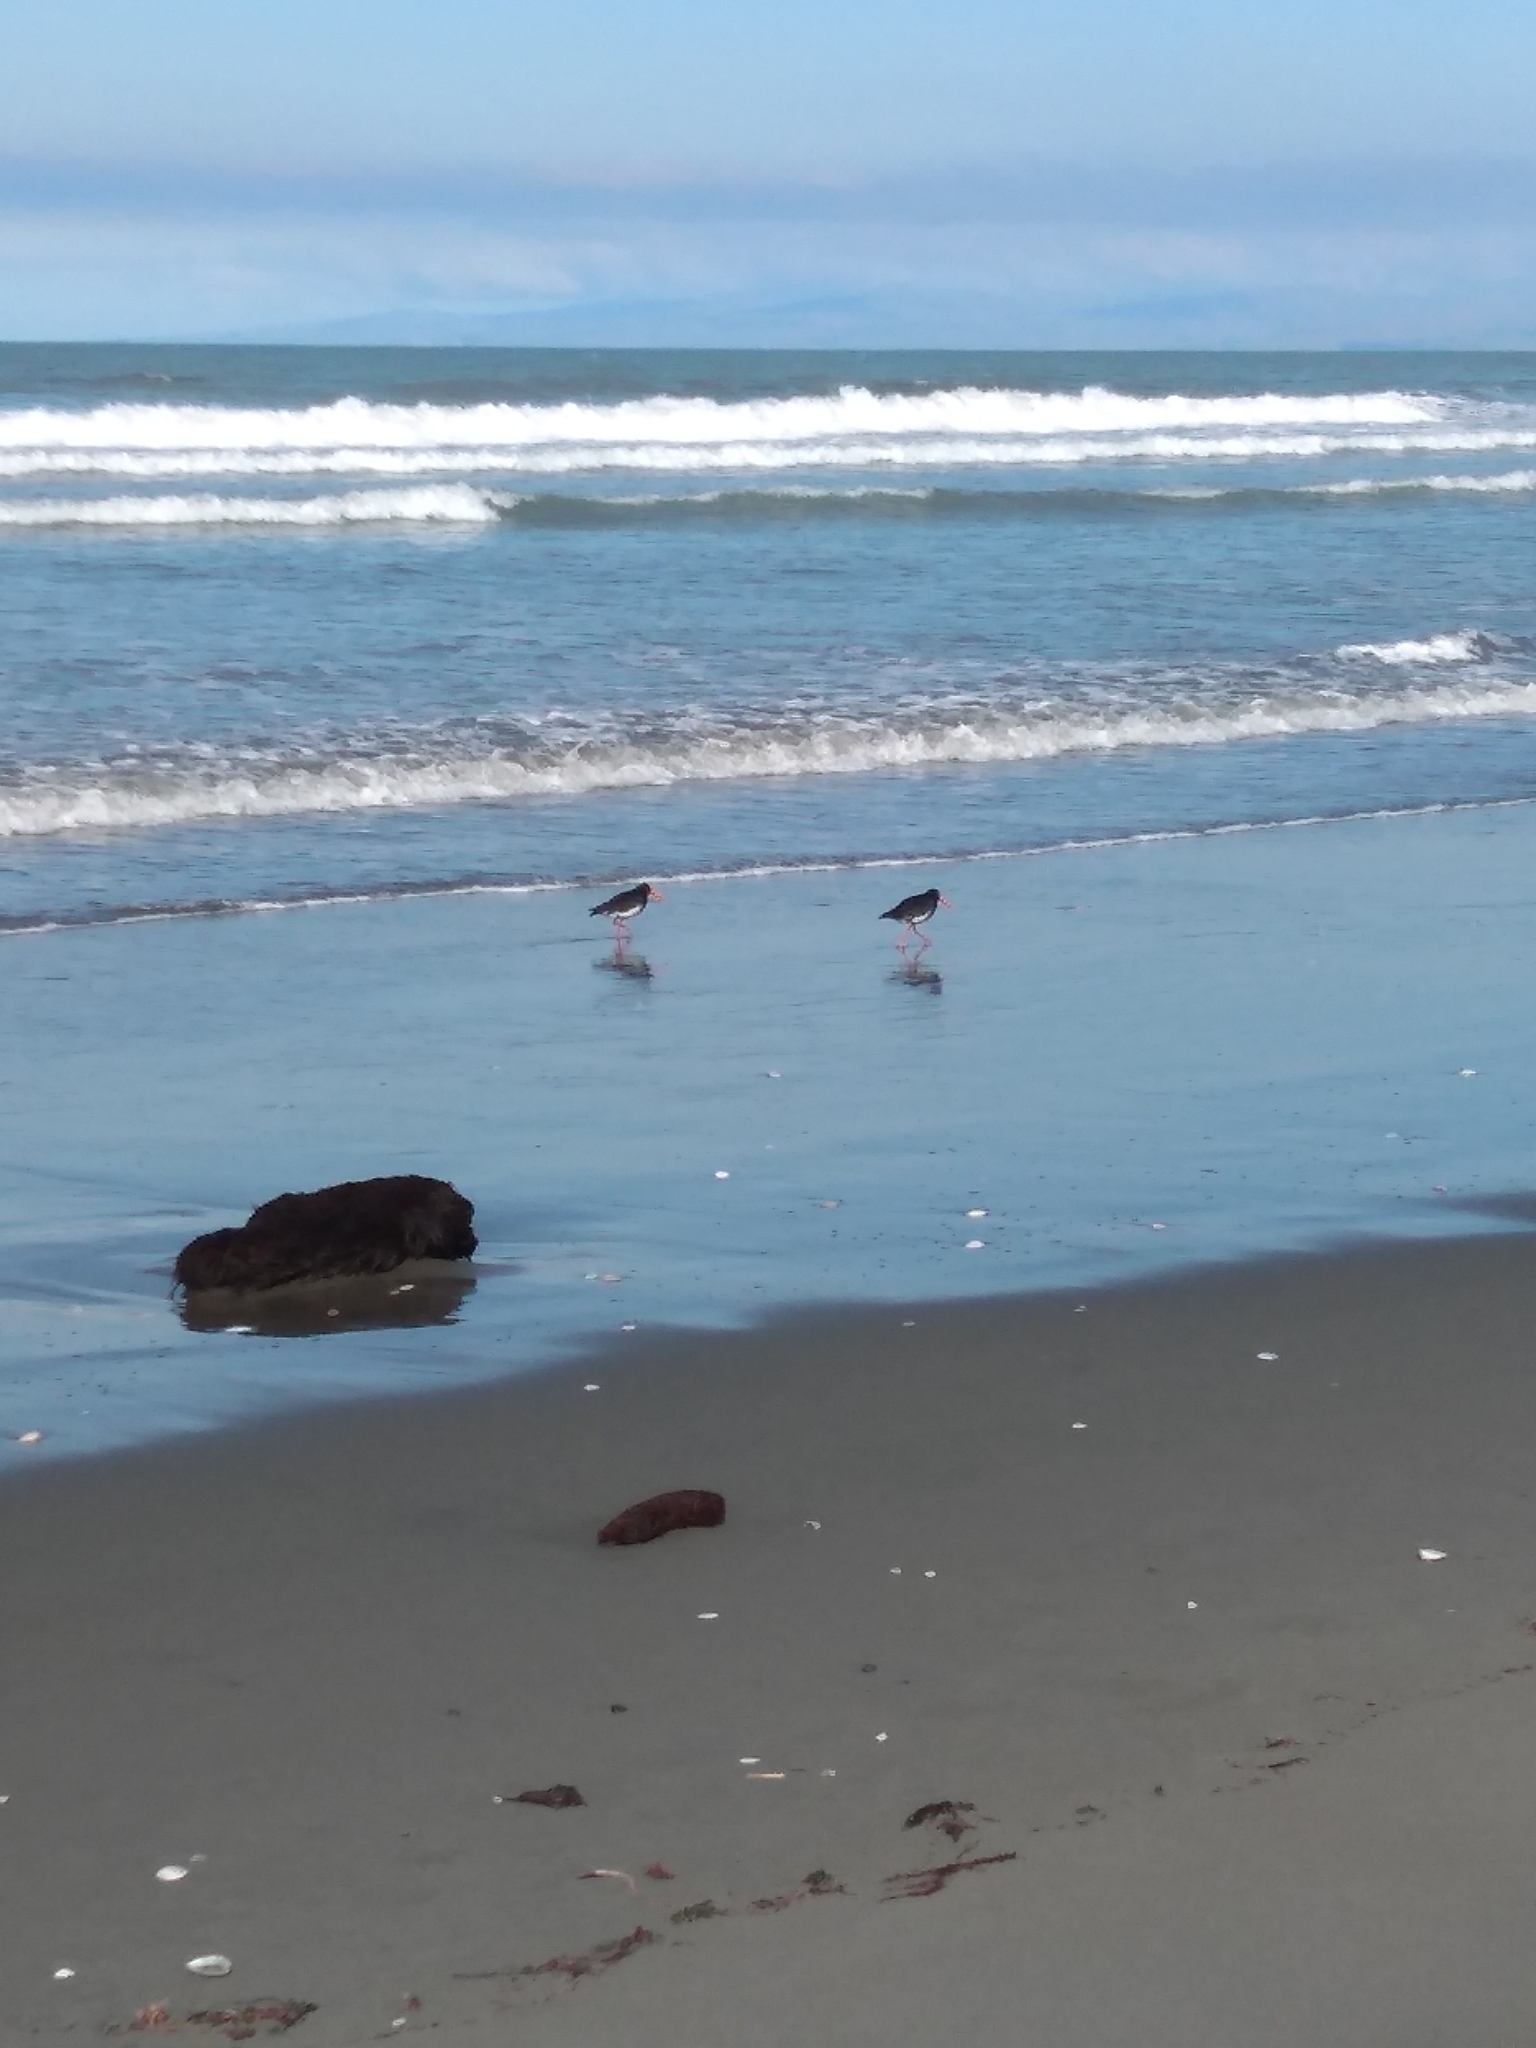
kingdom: Animalia
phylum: Chordata
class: Aves
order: Charadriiformes
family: Haematopodidae
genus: Haematopus
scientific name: Haematopus finschi
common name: South island oystercatcher
